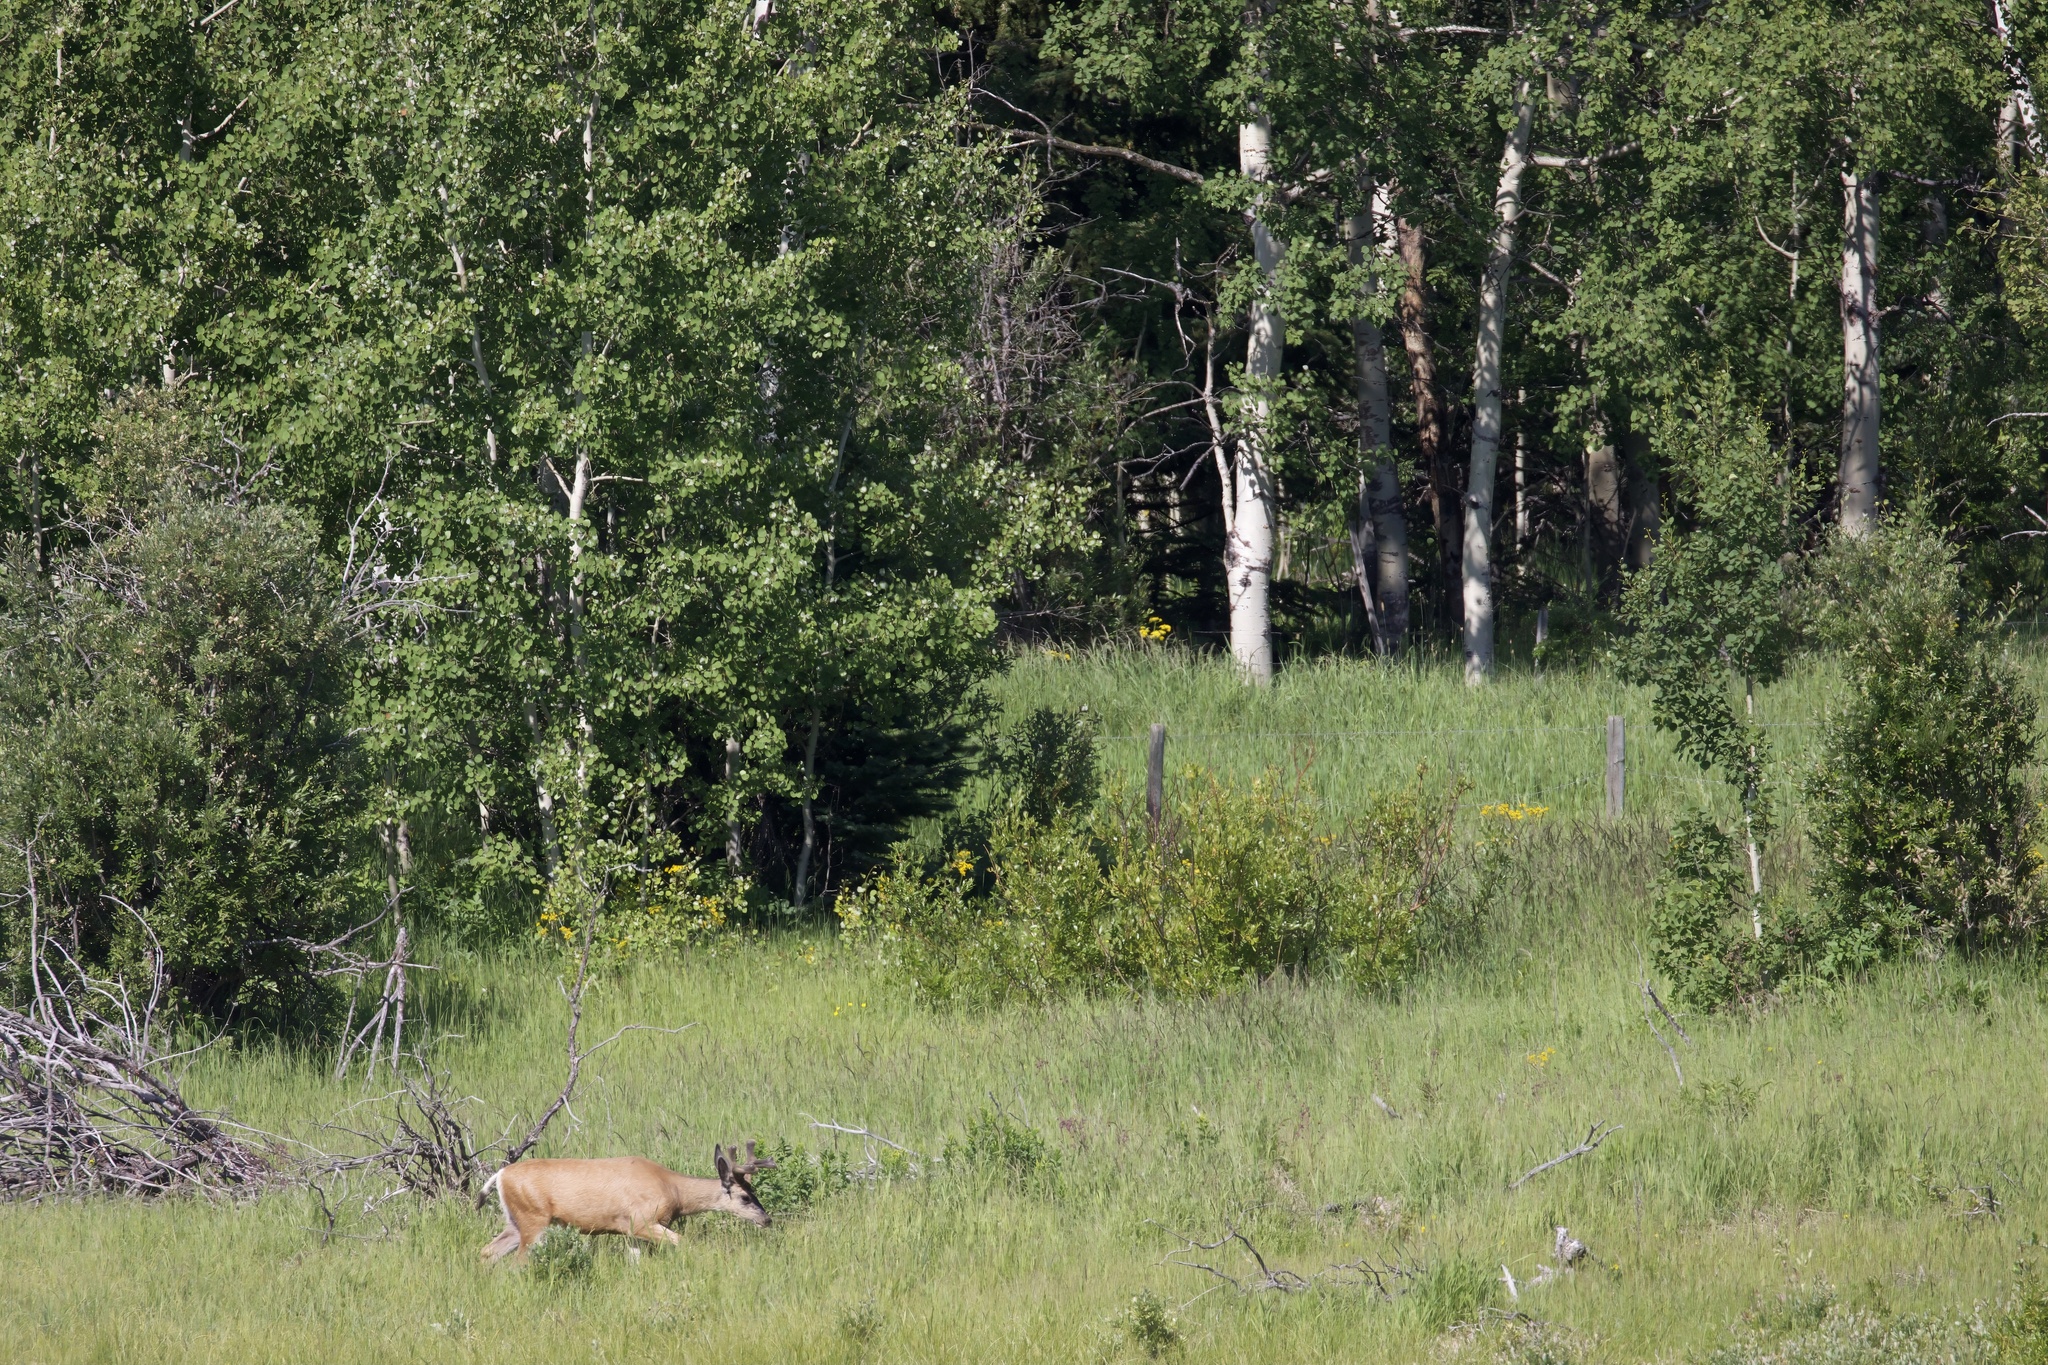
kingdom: Animalia
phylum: Chordata
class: Mammalia
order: Artiodactyla
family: Cervidae
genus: Odocoileus
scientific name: Odocoileus hemionus
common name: Mule deer
